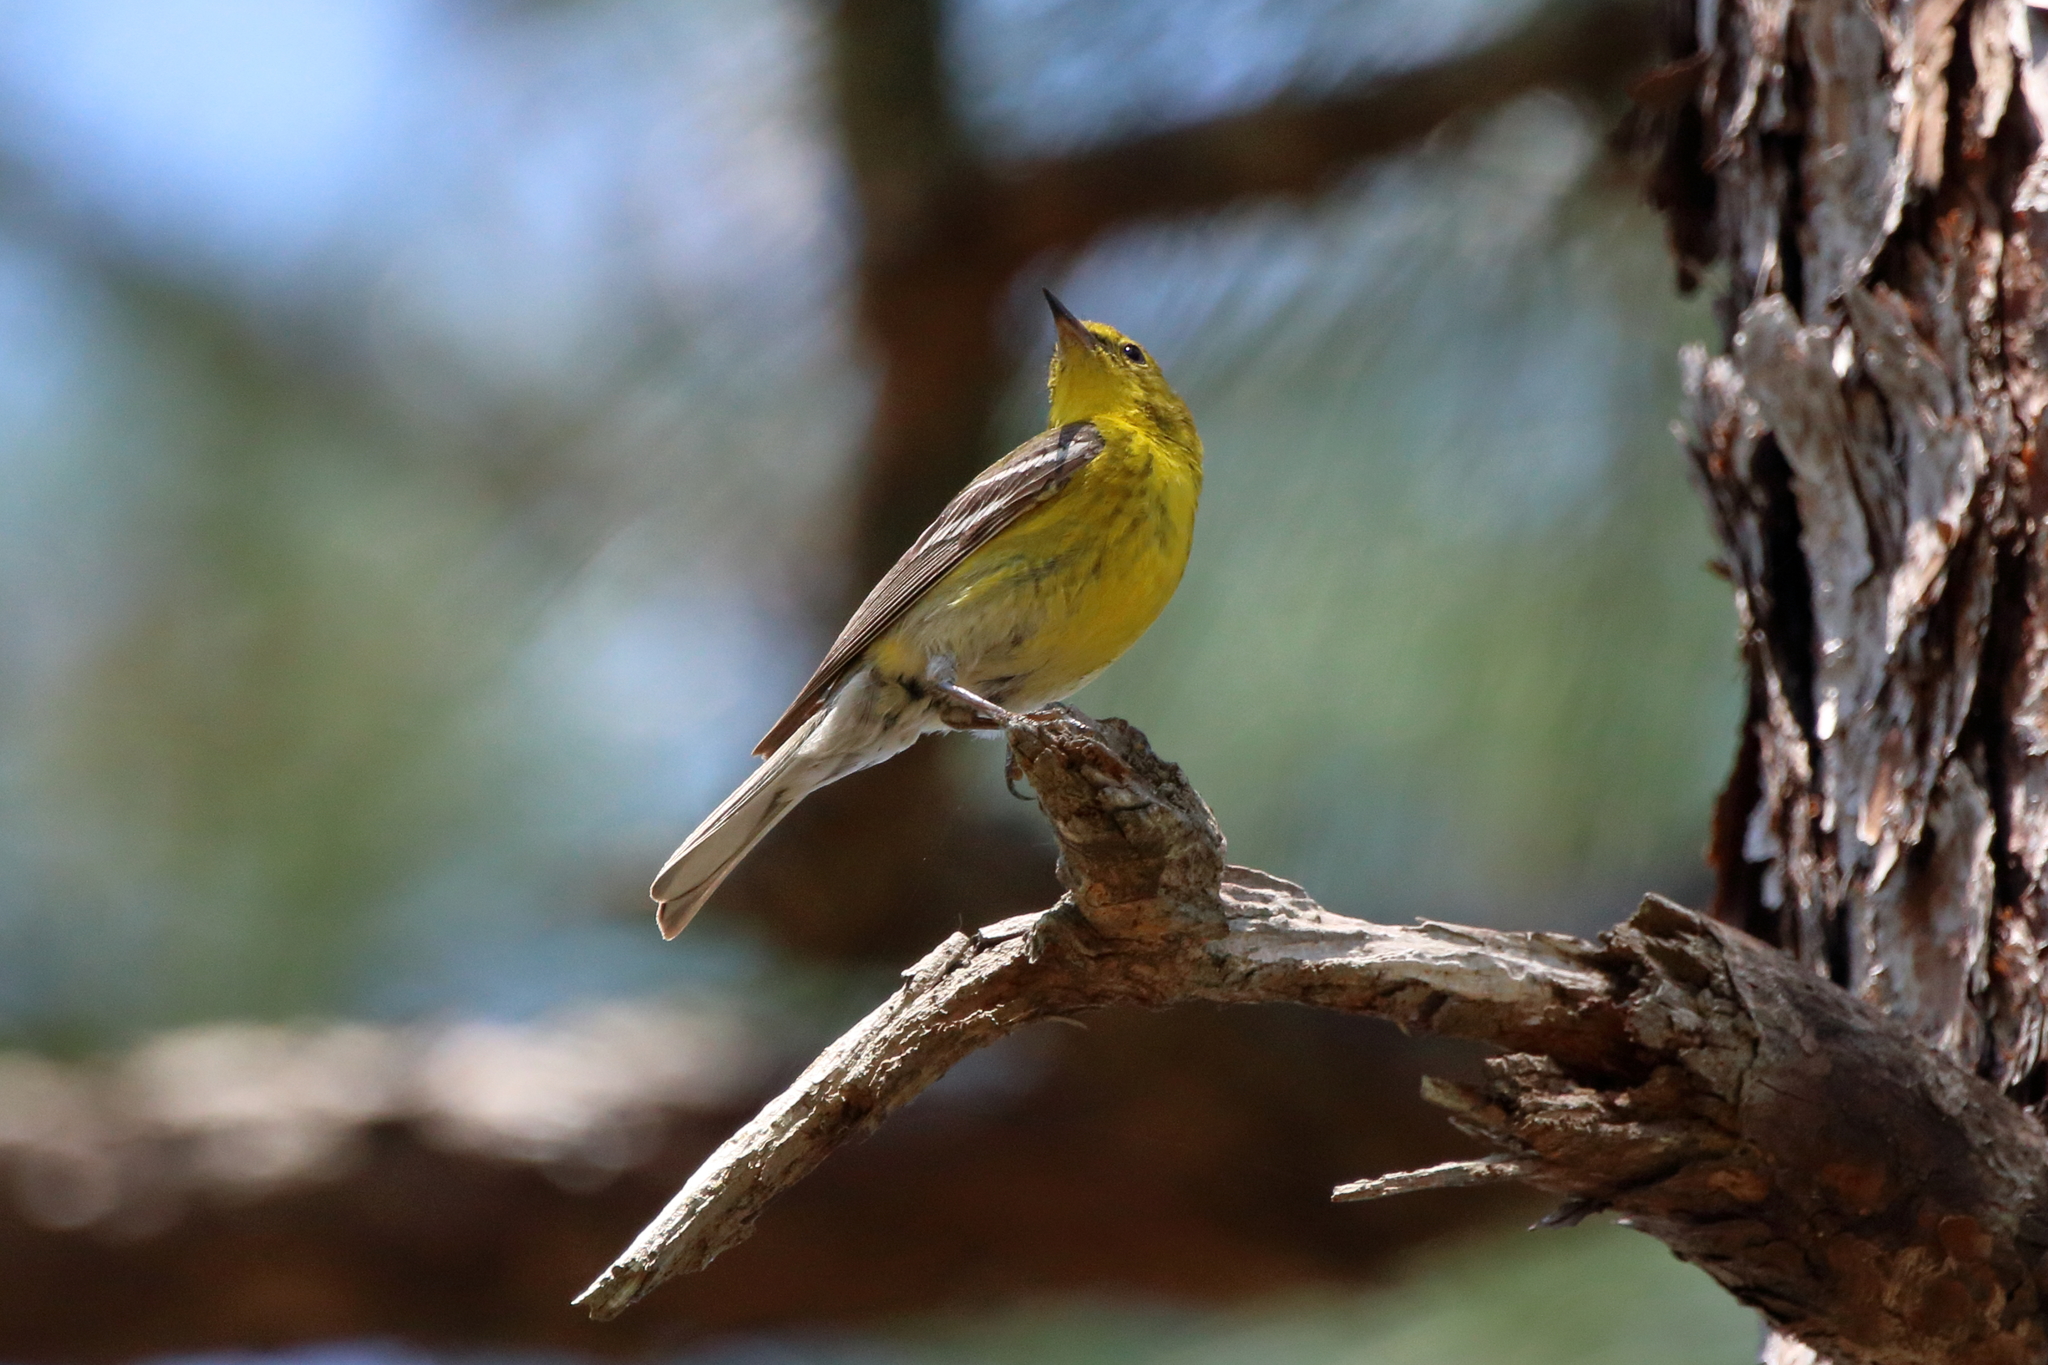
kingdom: Animalia
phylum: Chordata
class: Aves
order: Passeriformes
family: Parulidae
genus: Setophaga
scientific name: Setophaga pinus
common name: Pine warbler
